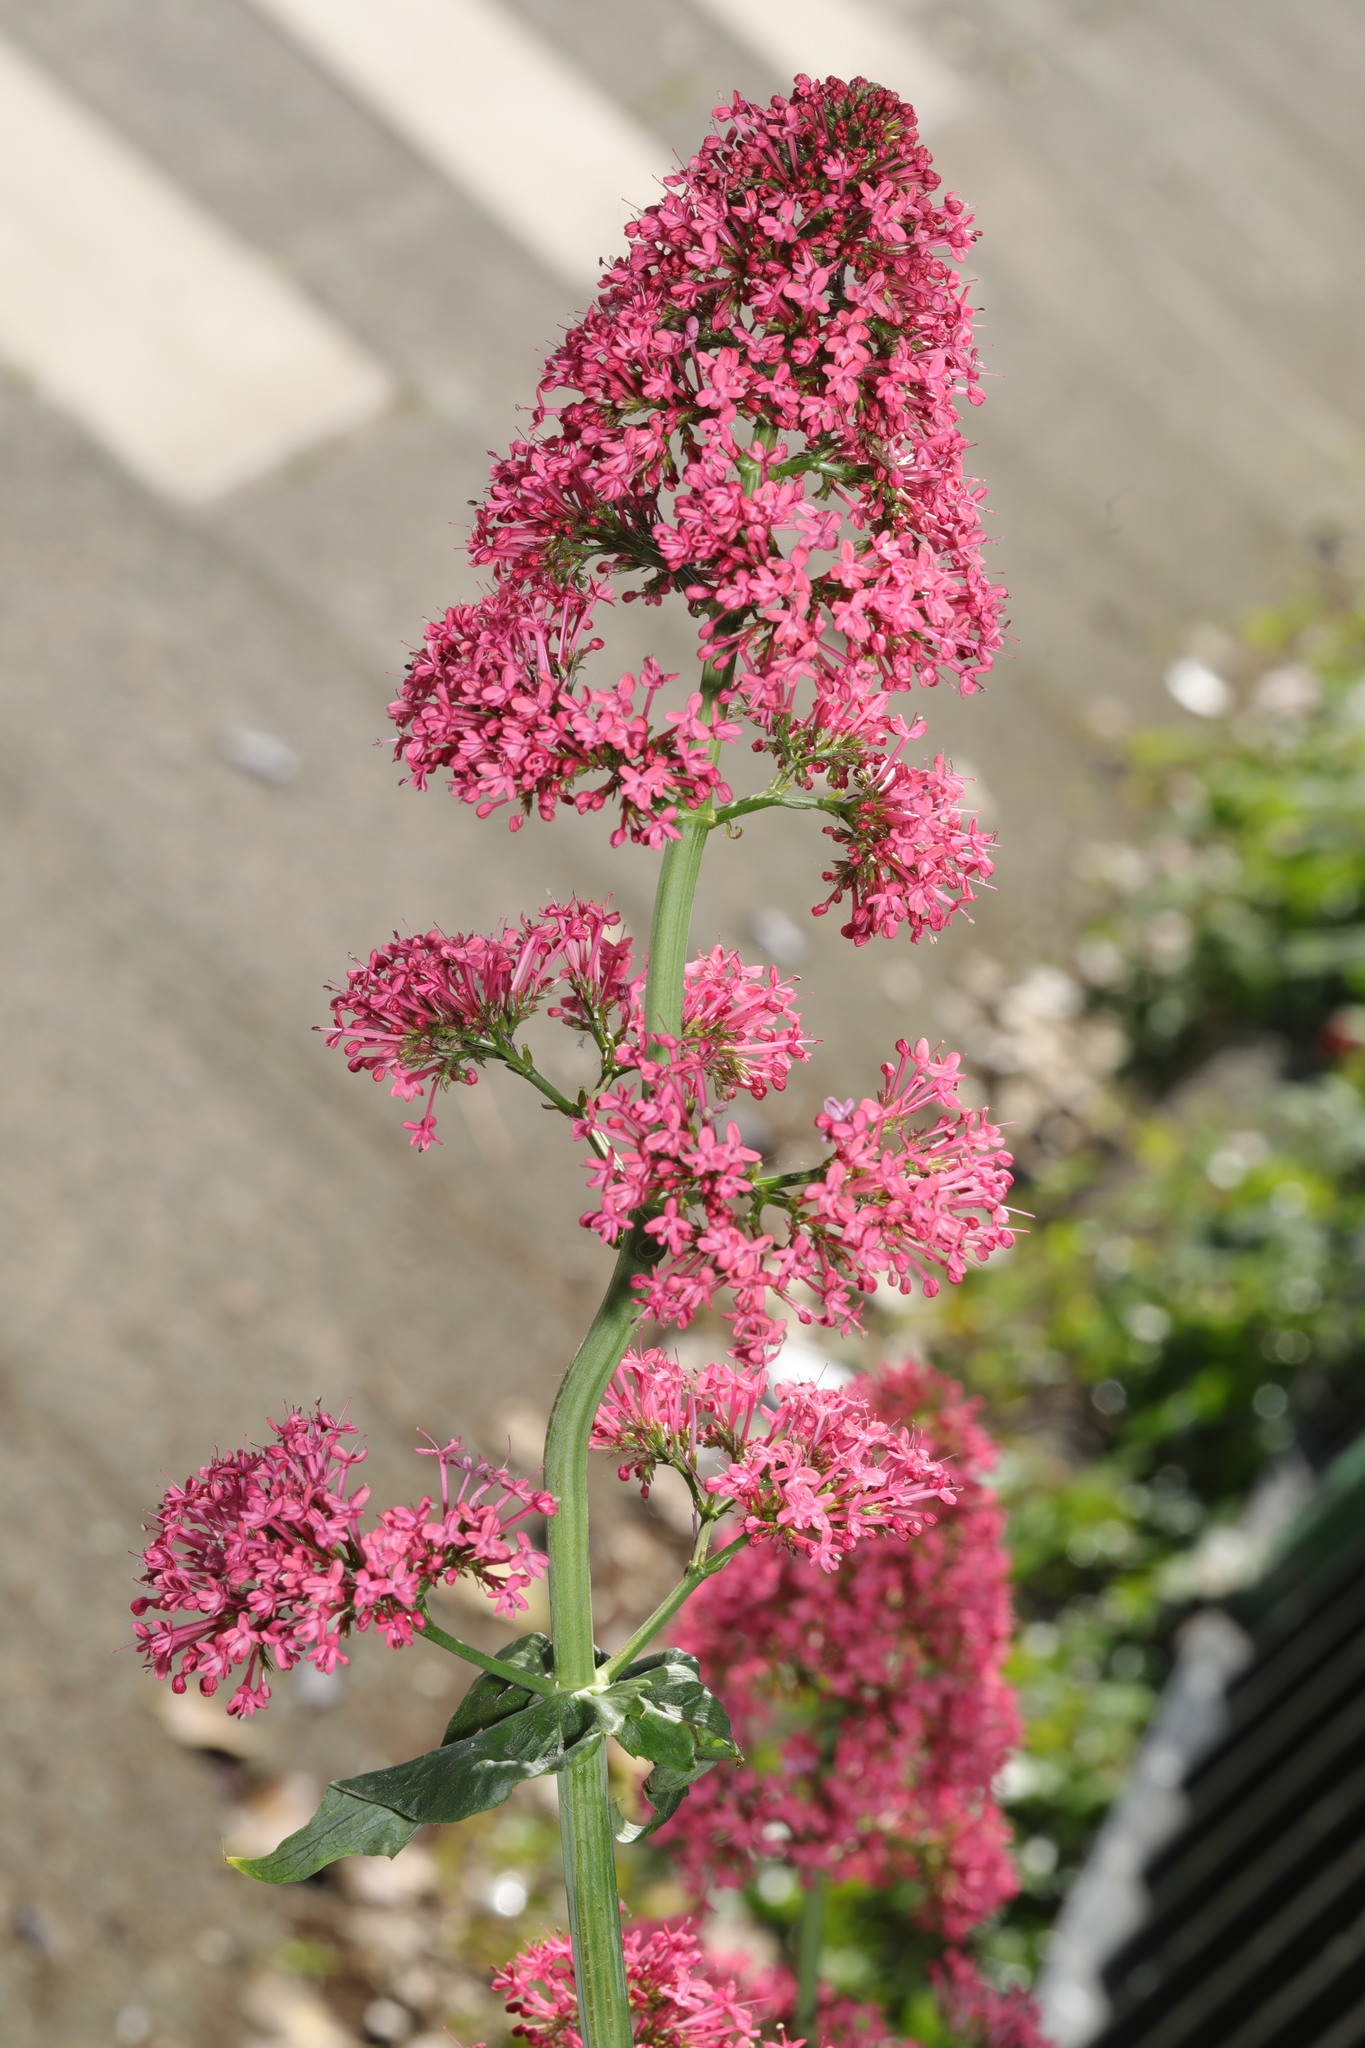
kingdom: Plantae
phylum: Tracheophyta
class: Magnoliopsida
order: Dipsacales
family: Caprifoliaceae
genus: Centranthus
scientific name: Centranthus ruber
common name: Red valerian
